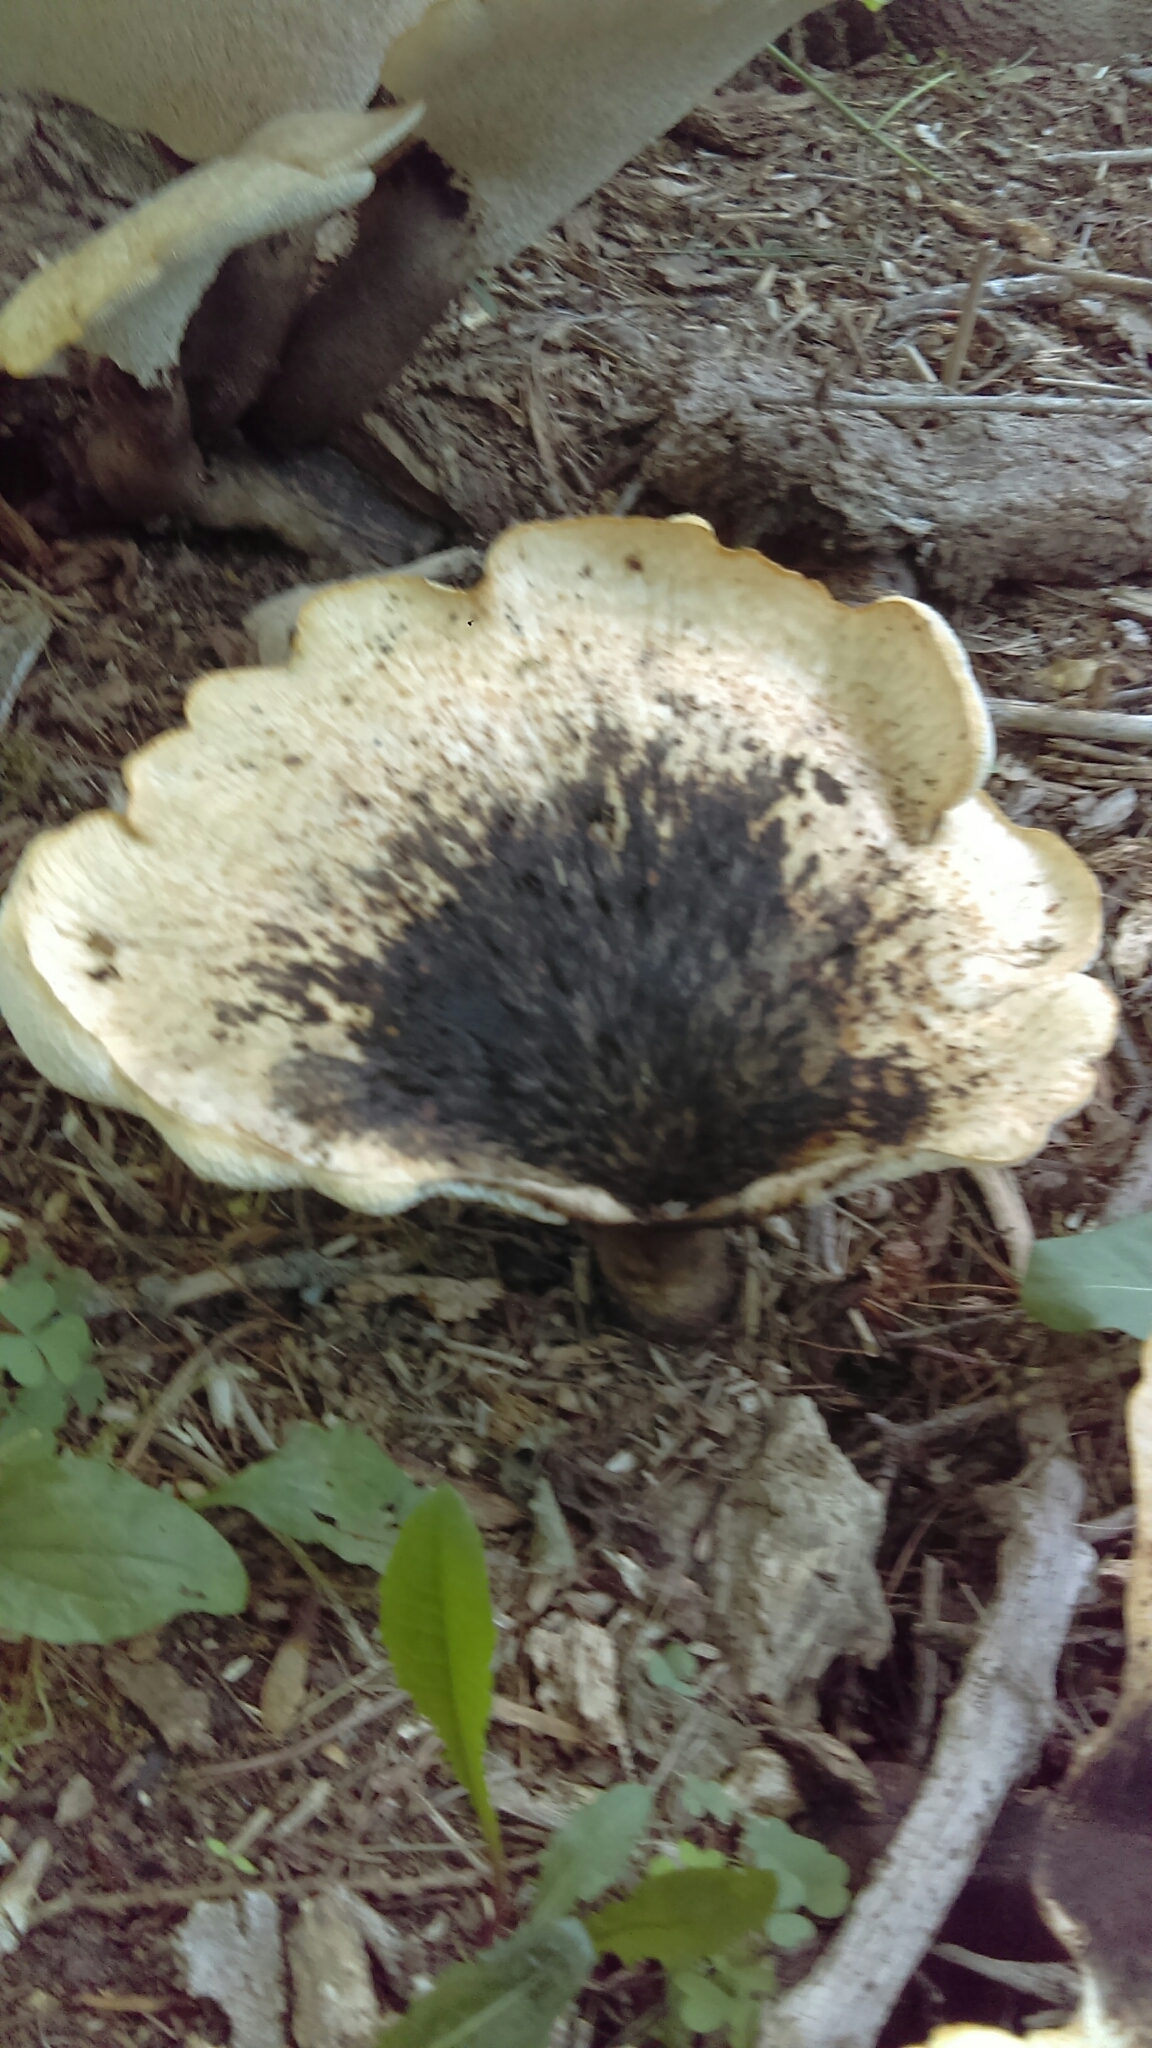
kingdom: Fungi
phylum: Basidiomycota
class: Agaricomycetes
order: Polyporales
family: Polyporaceae
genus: Cerioporus
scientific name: Cerioporus squamosus
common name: Dryad's saddle
